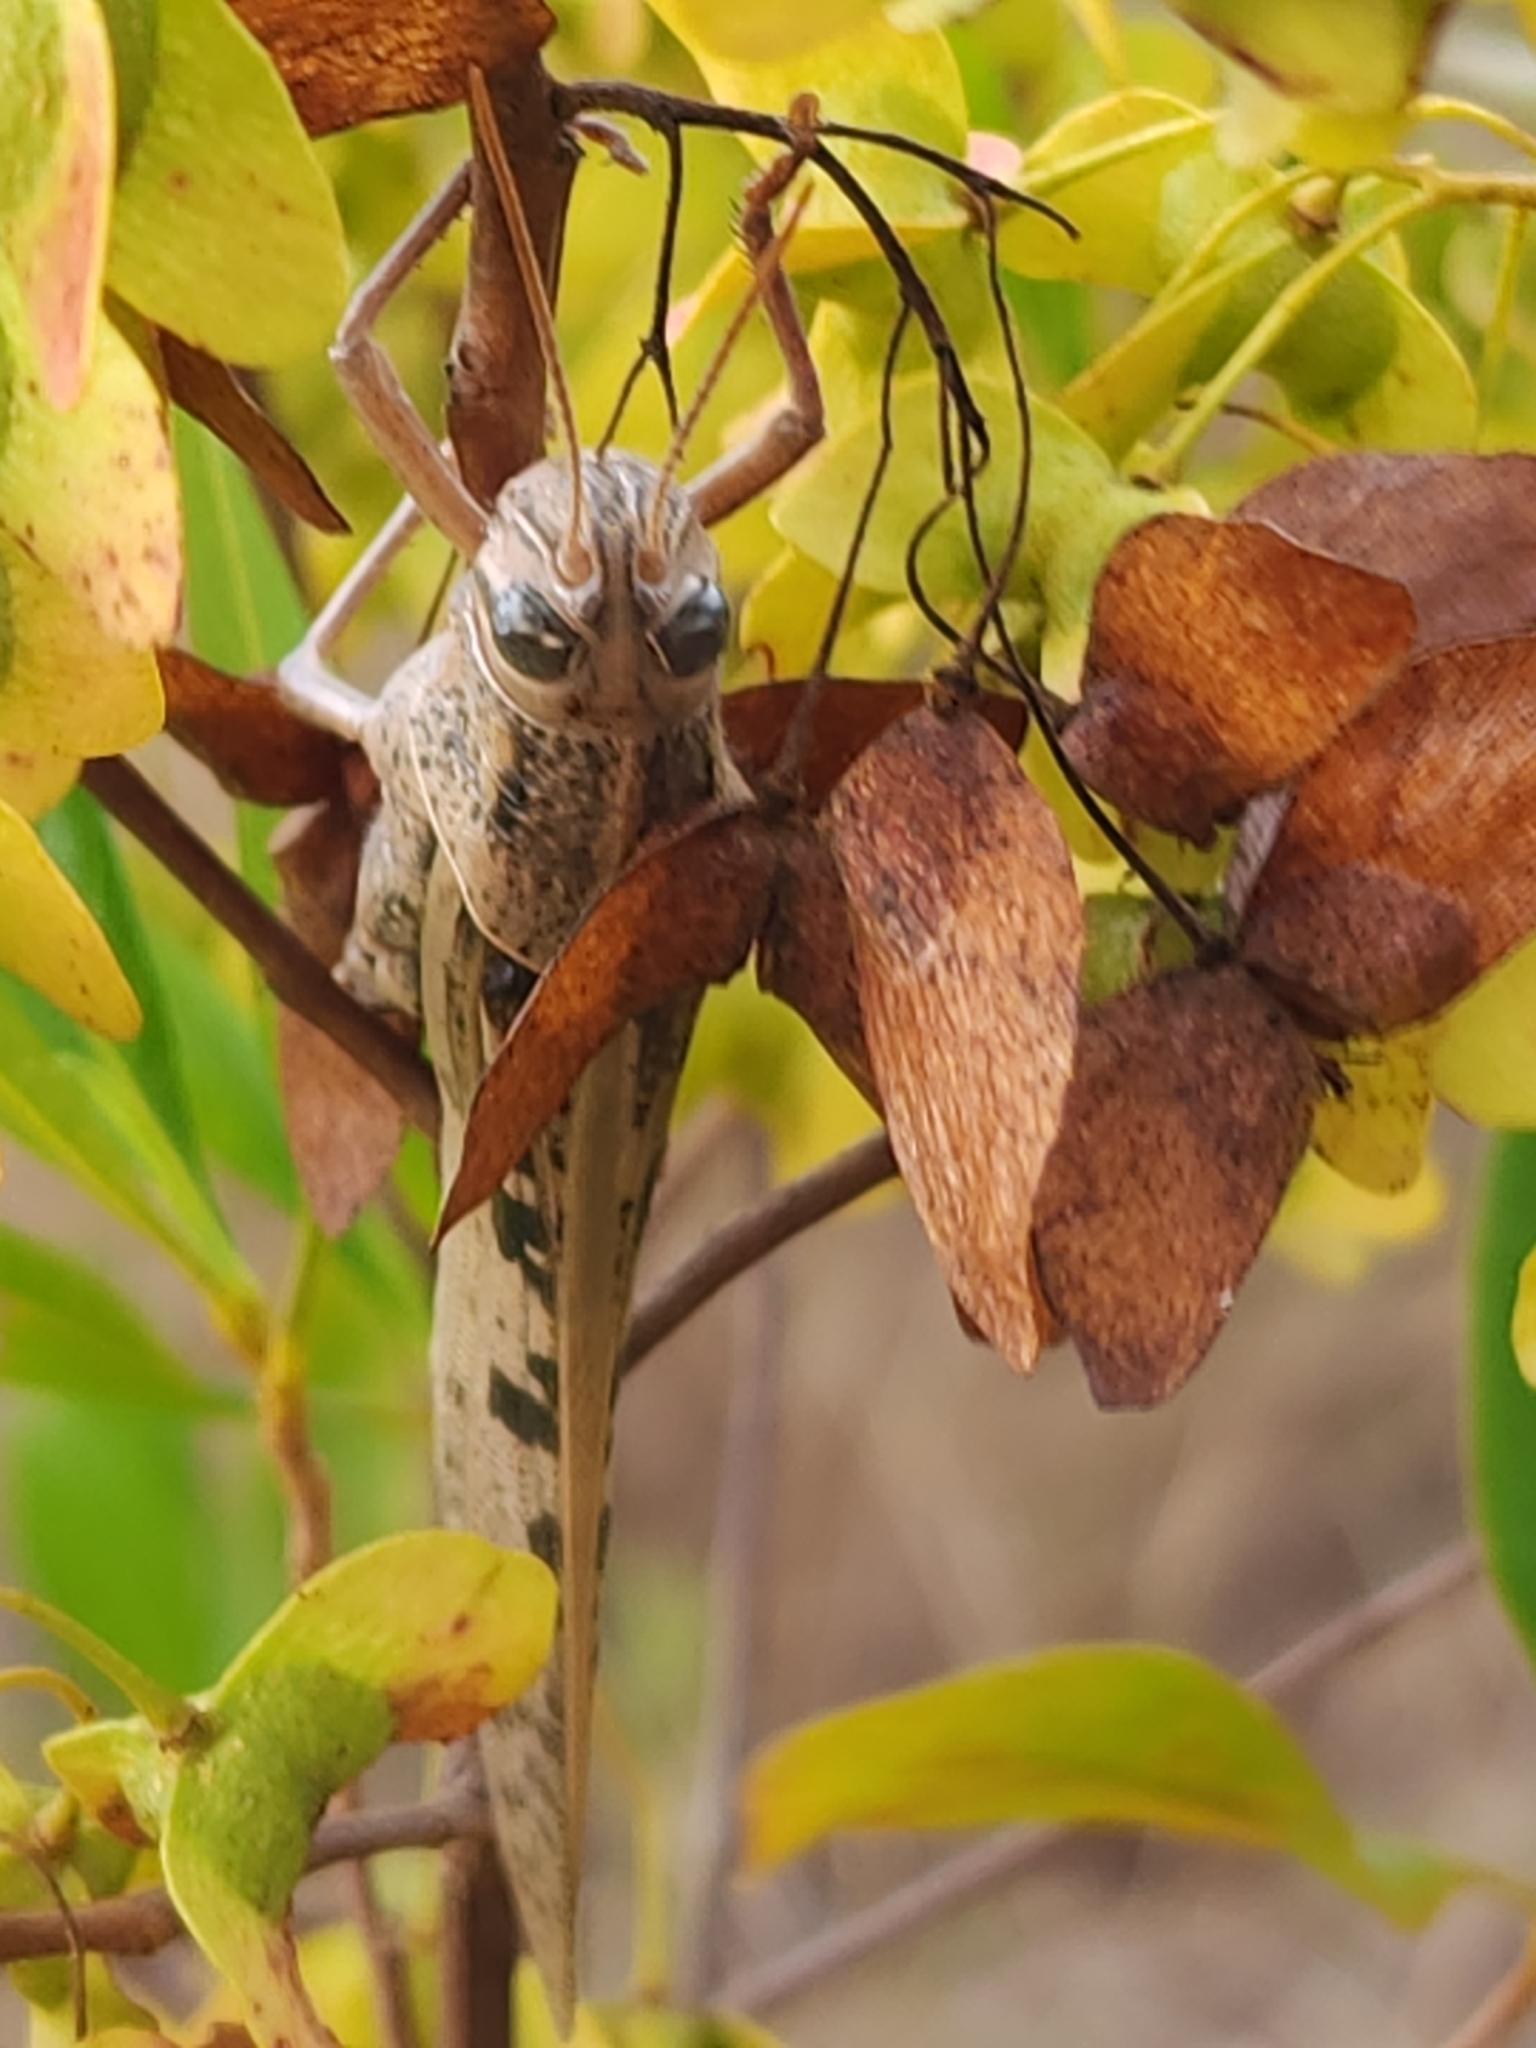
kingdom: Animalia
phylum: Arthropoda
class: Insecta
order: Orthoptera
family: Acrididae
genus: Valanga
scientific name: Valanga irregularis
